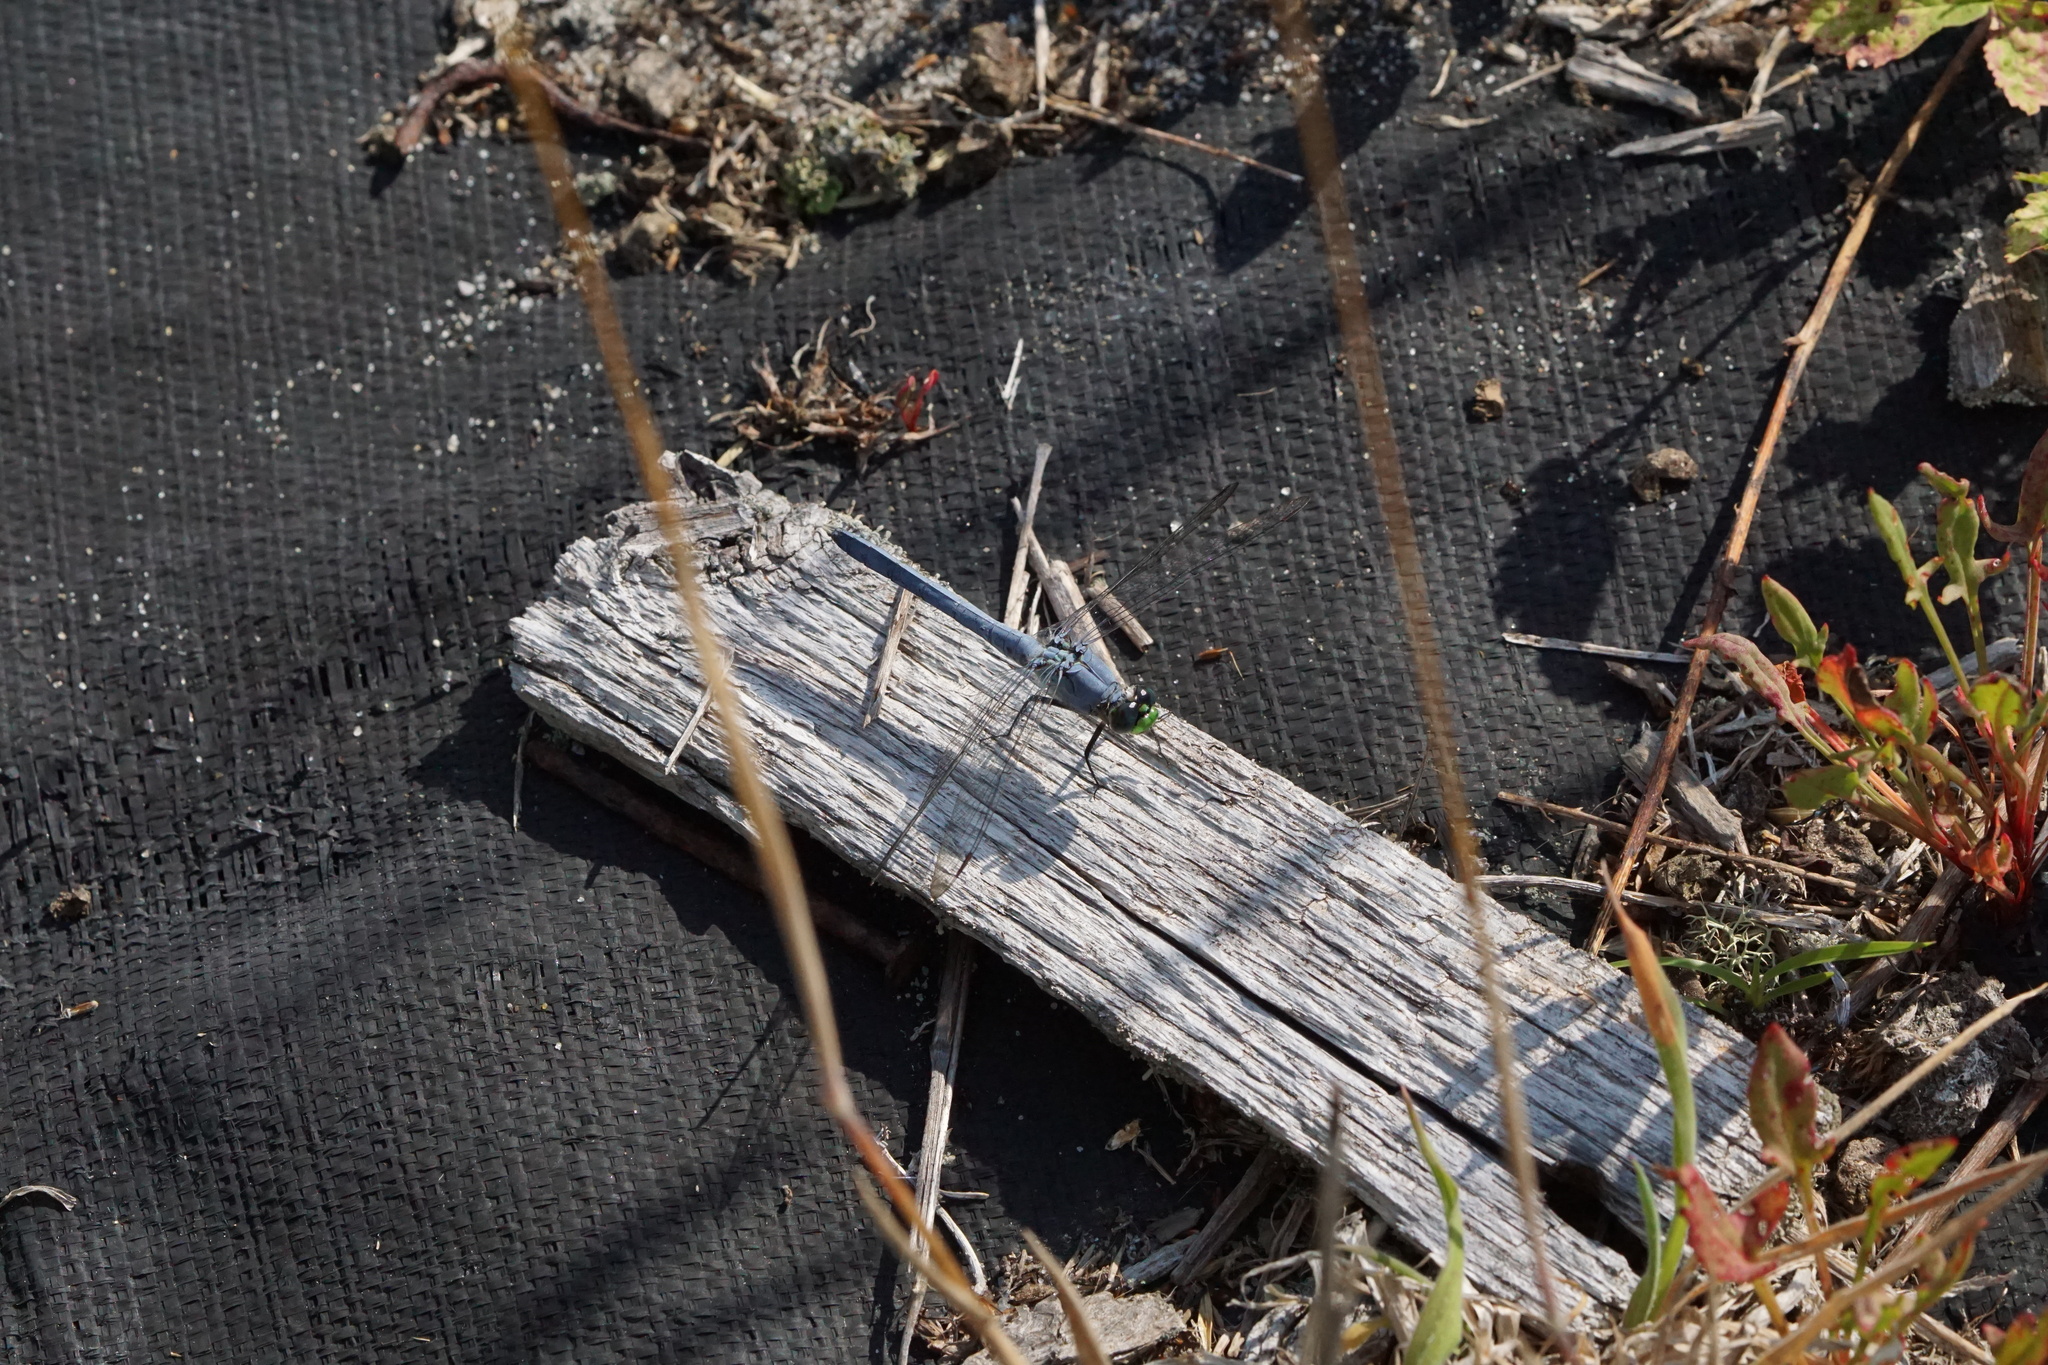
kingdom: Animalia
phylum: Arthropoda
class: Insecta
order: Odonata
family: Libellulidae
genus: Erythemis
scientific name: Erythemis simplicicollis
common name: Eastern pondhawk
